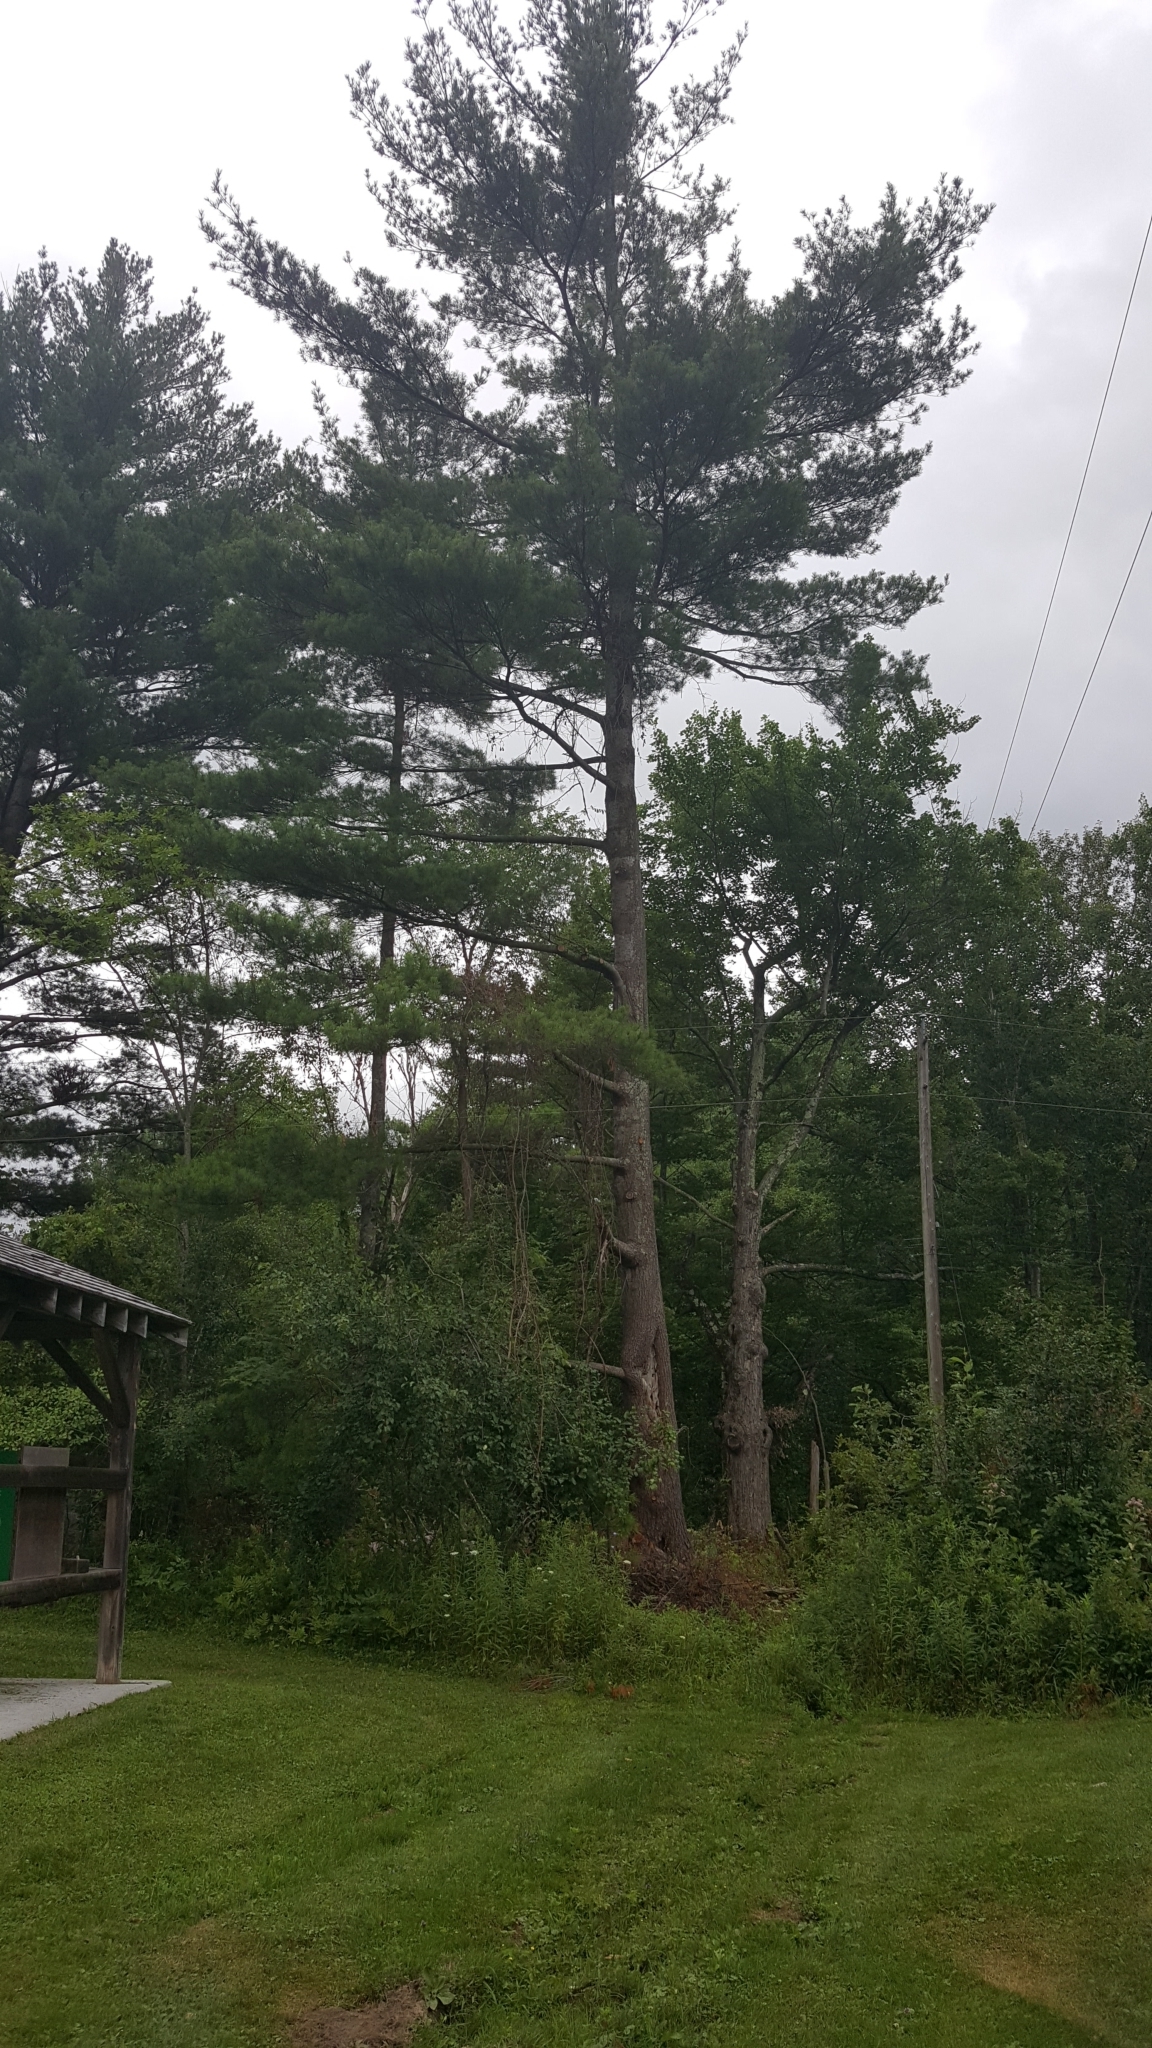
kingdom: Plantae
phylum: Tracheophyta
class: Pinopsida
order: Pinales
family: Pinaceae
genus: Pinus
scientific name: Pinus strobus
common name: Weymouth pine
